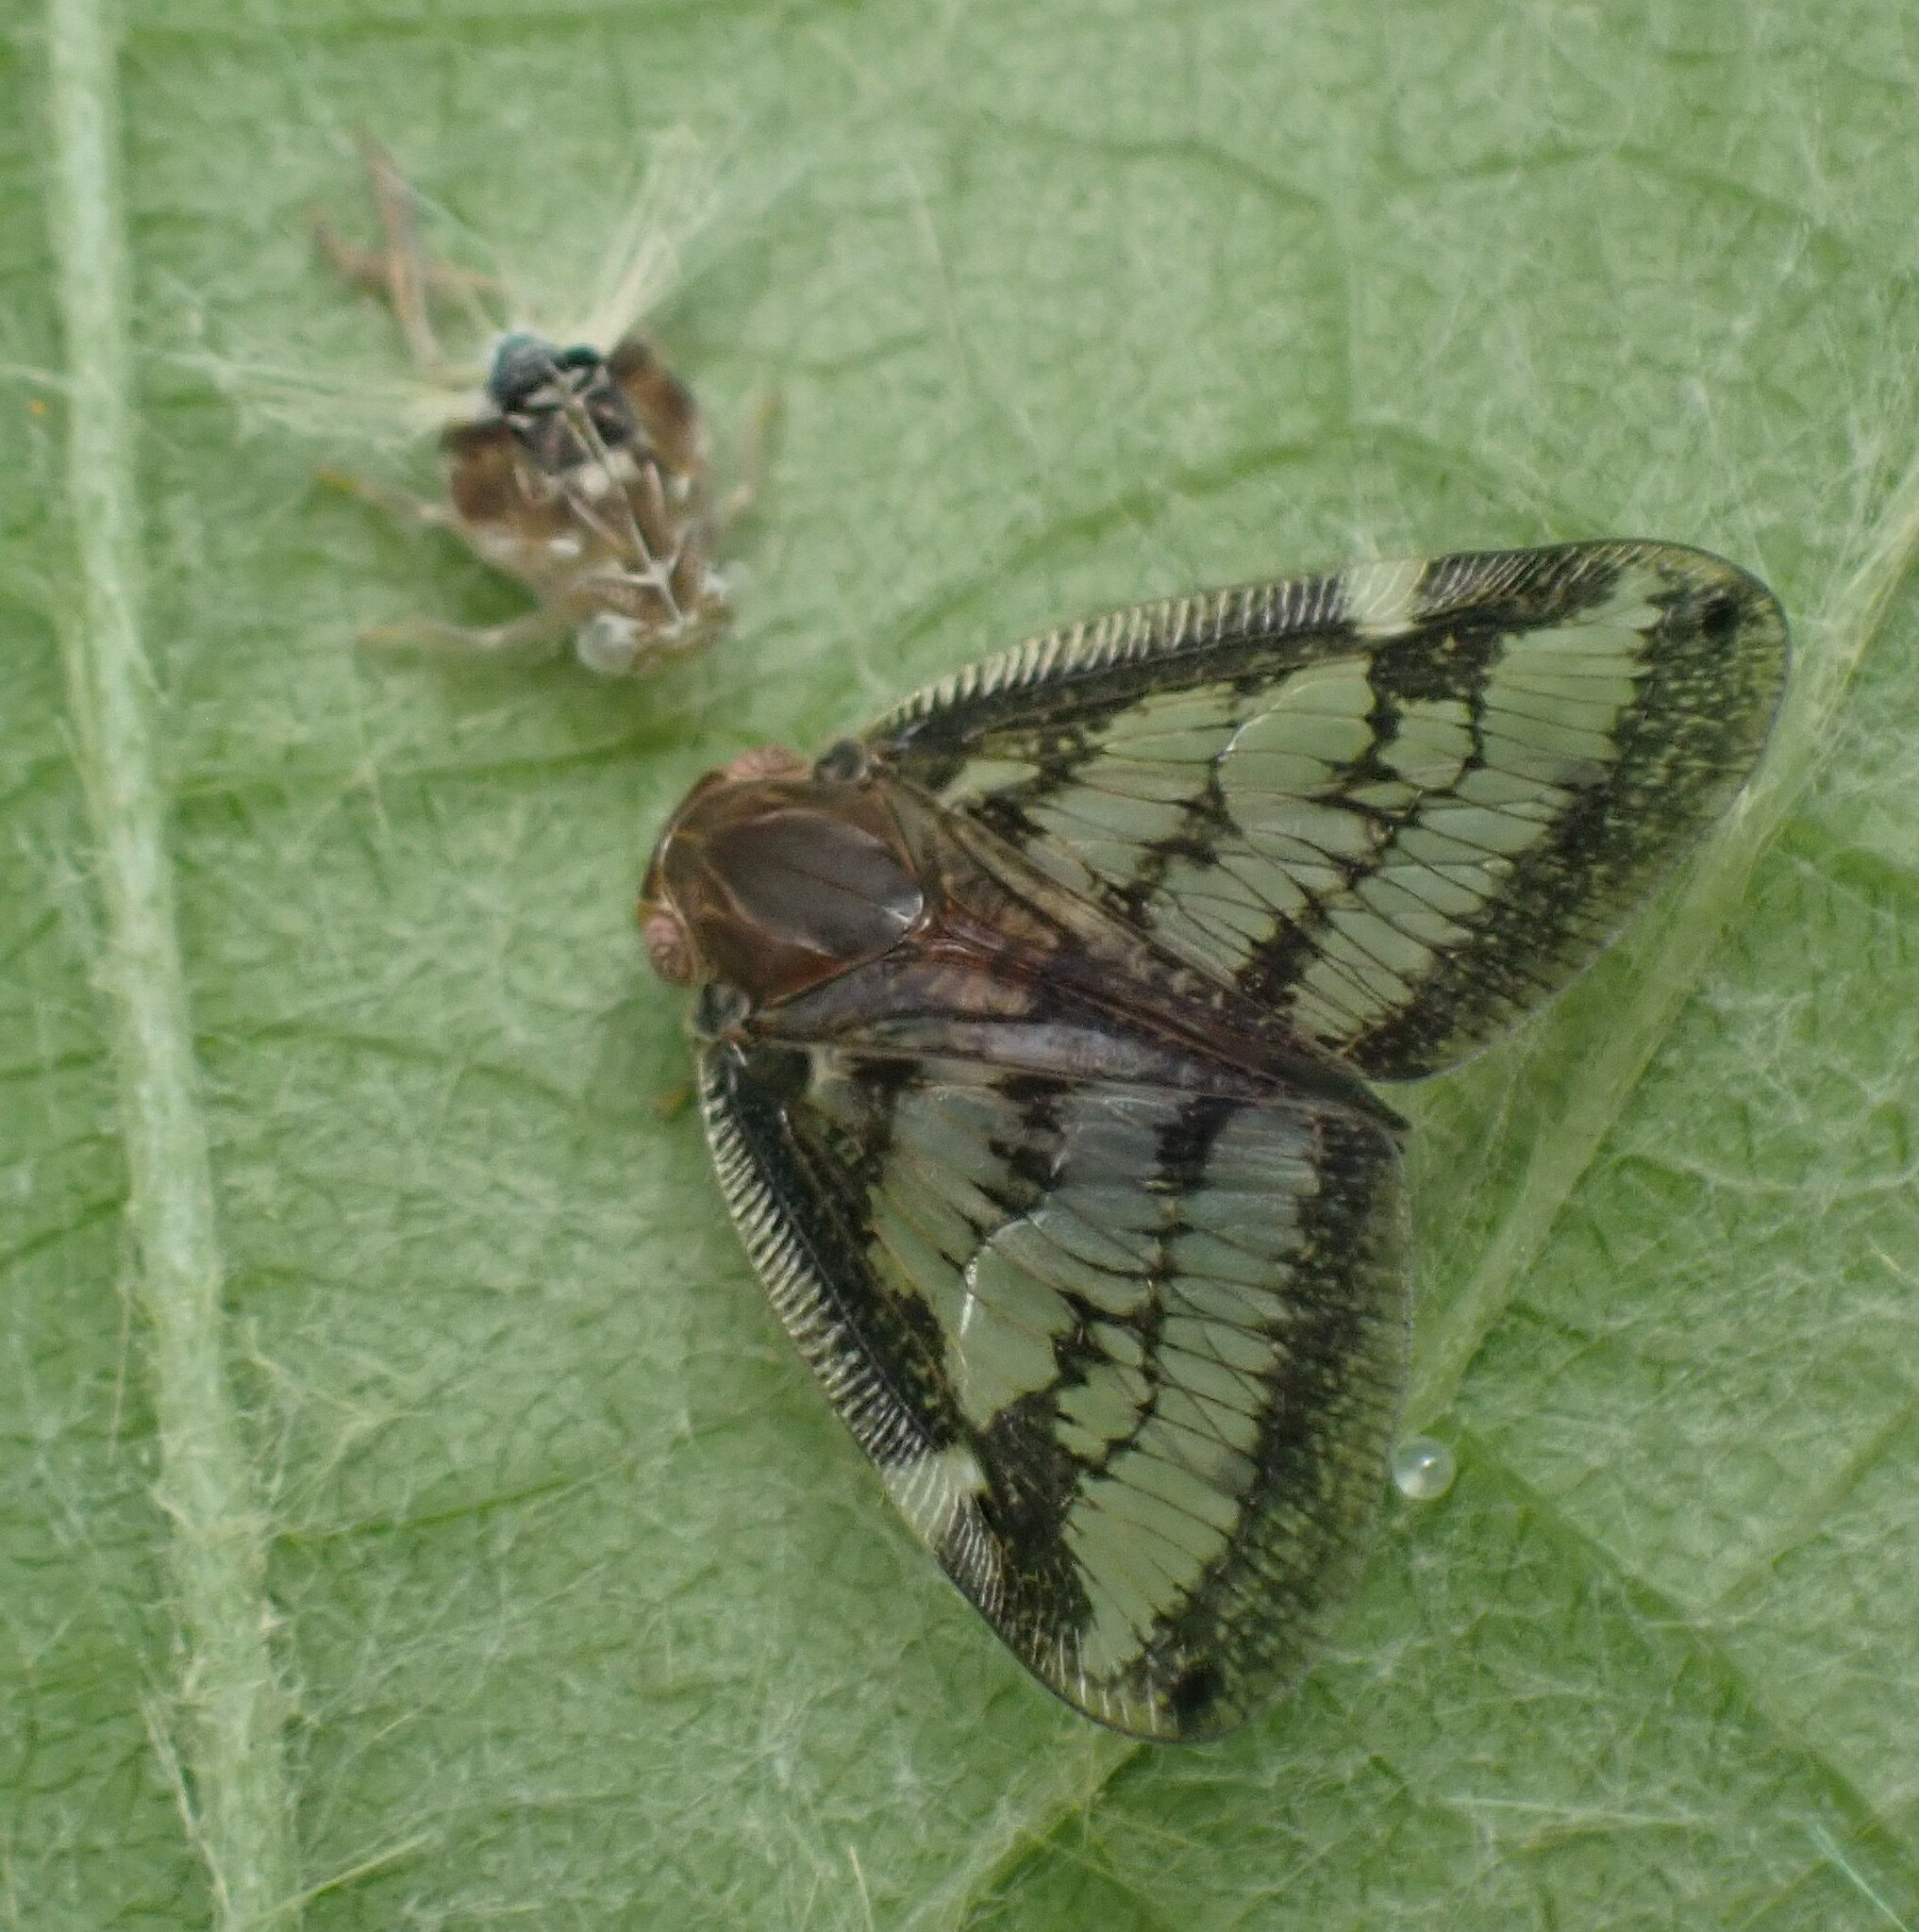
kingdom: Animalia
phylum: Arthropoda
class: Insecta
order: Hemiptera
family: Ricaniidae
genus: Scolypopa
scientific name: Scolypopa australis
